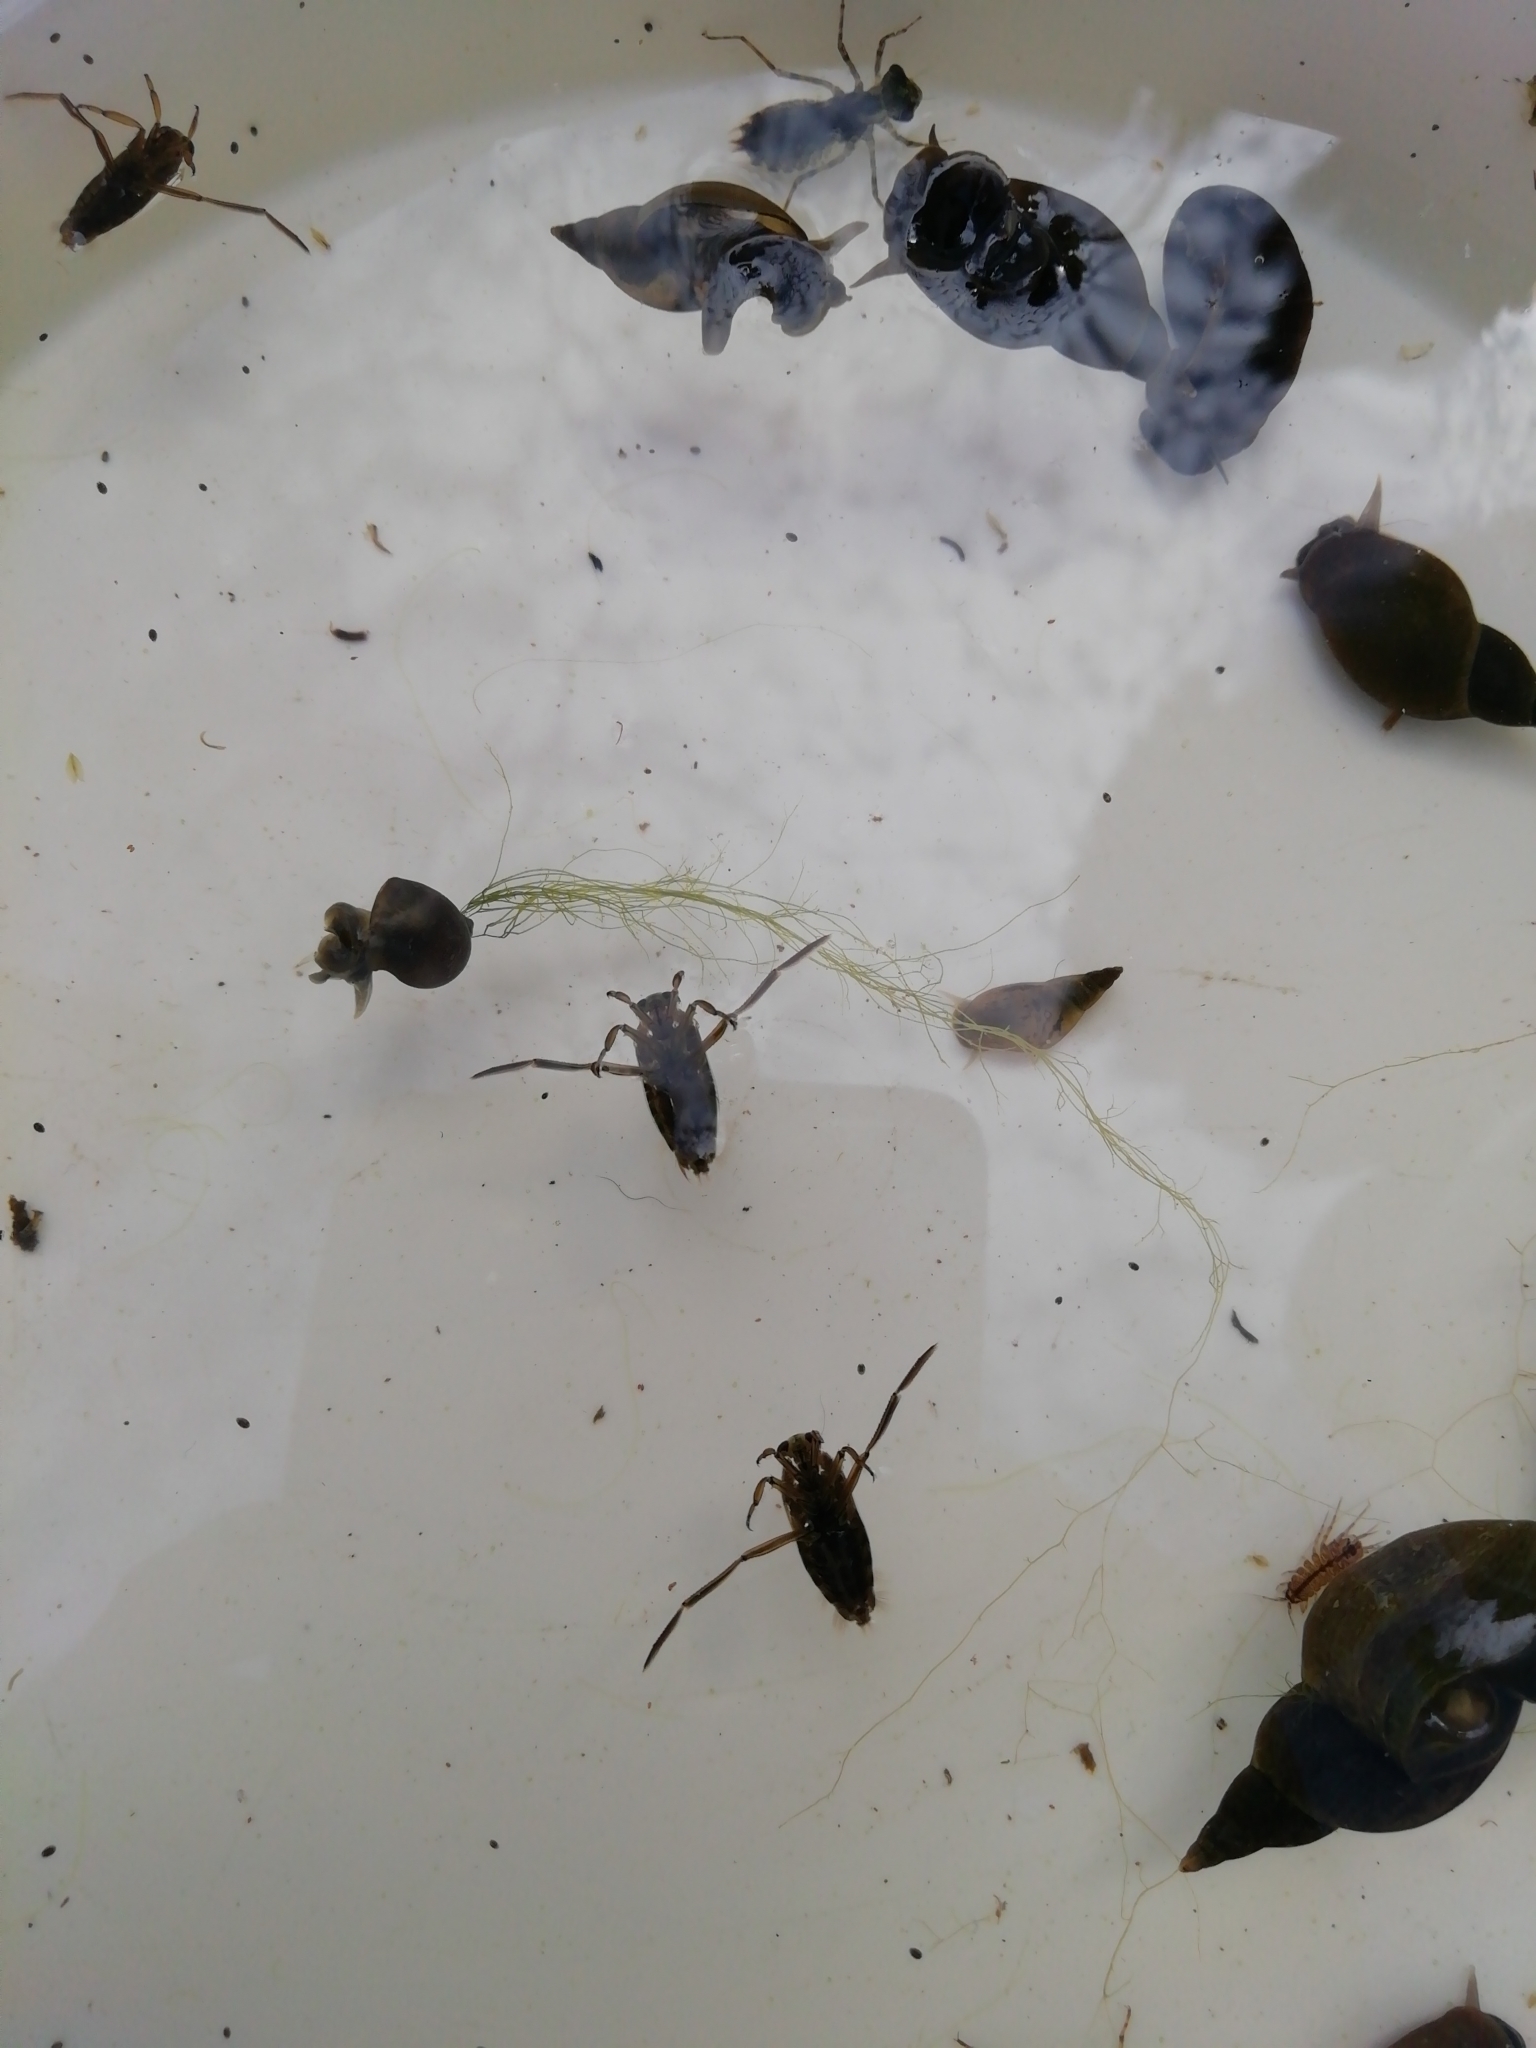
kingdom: Animalia
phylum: Arthropoda
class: Insecta
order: Hemiptera
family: Notonectidae
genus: Notonecta
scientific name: Notonecta
